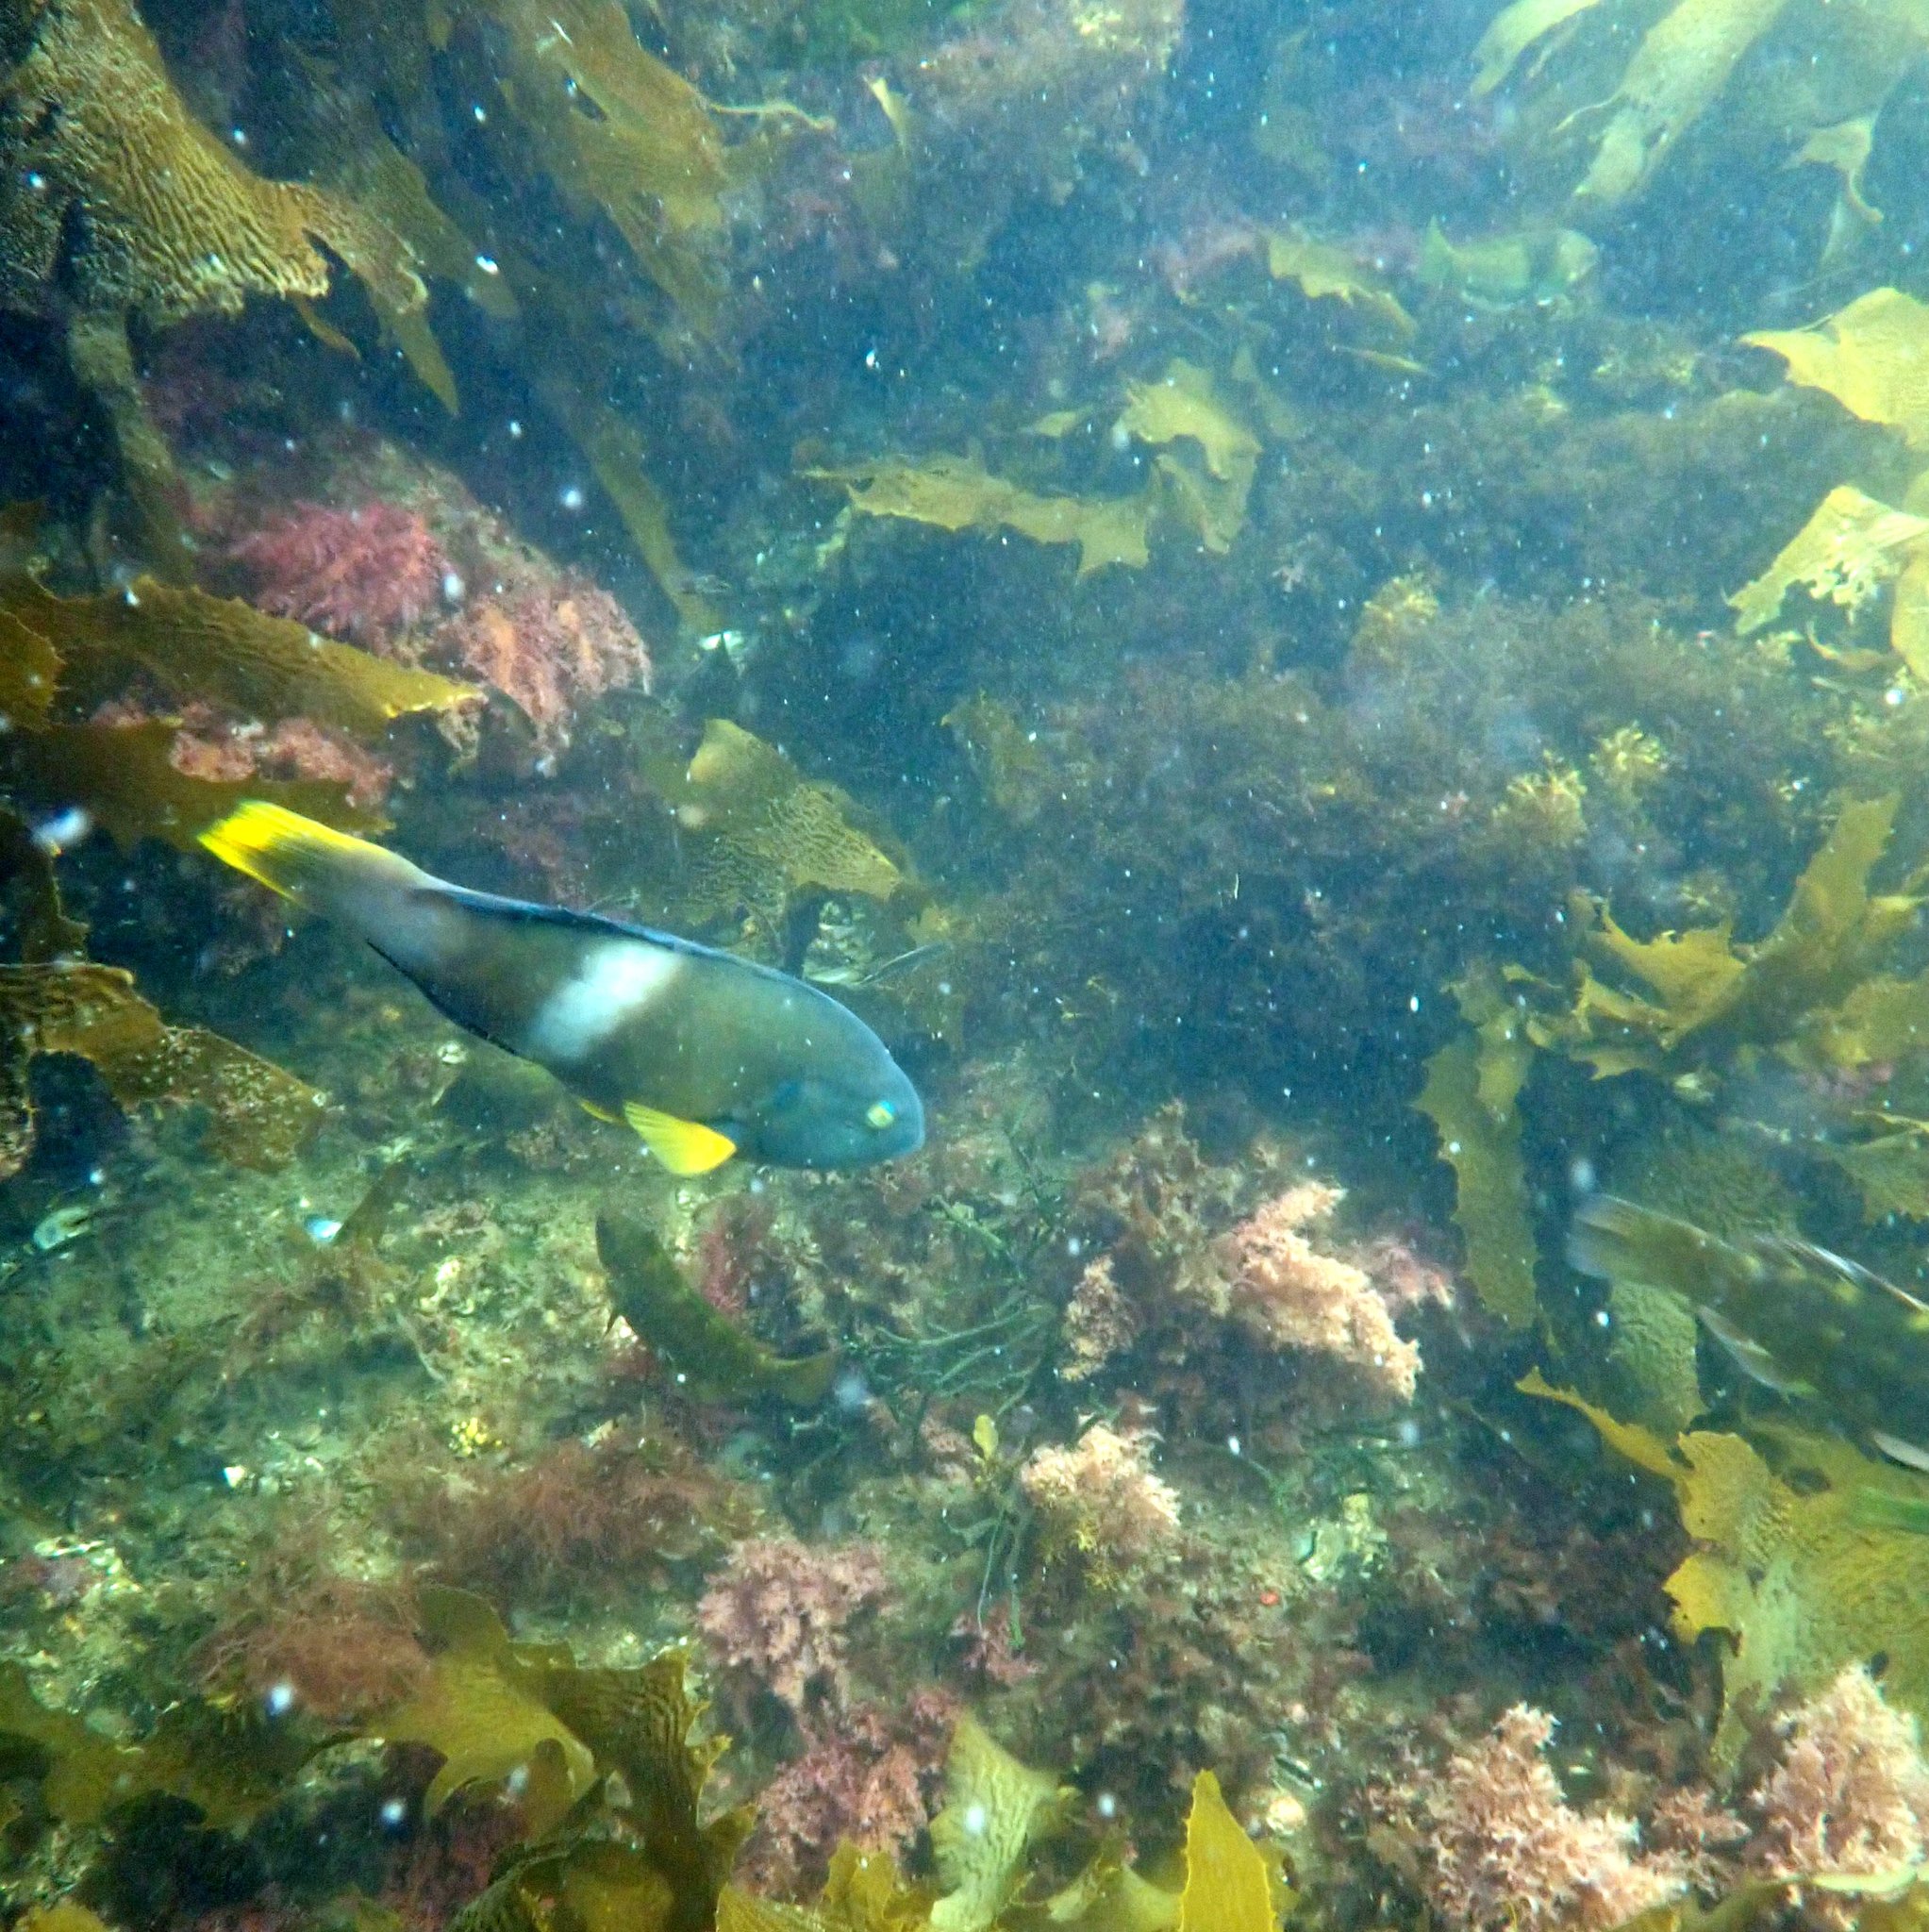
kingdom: Animalia
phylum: Chordata
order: Perciformes
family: Labridae
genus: Notolabrus
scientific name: Notolabrus tetricus
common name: Blue-throated parrotfish
